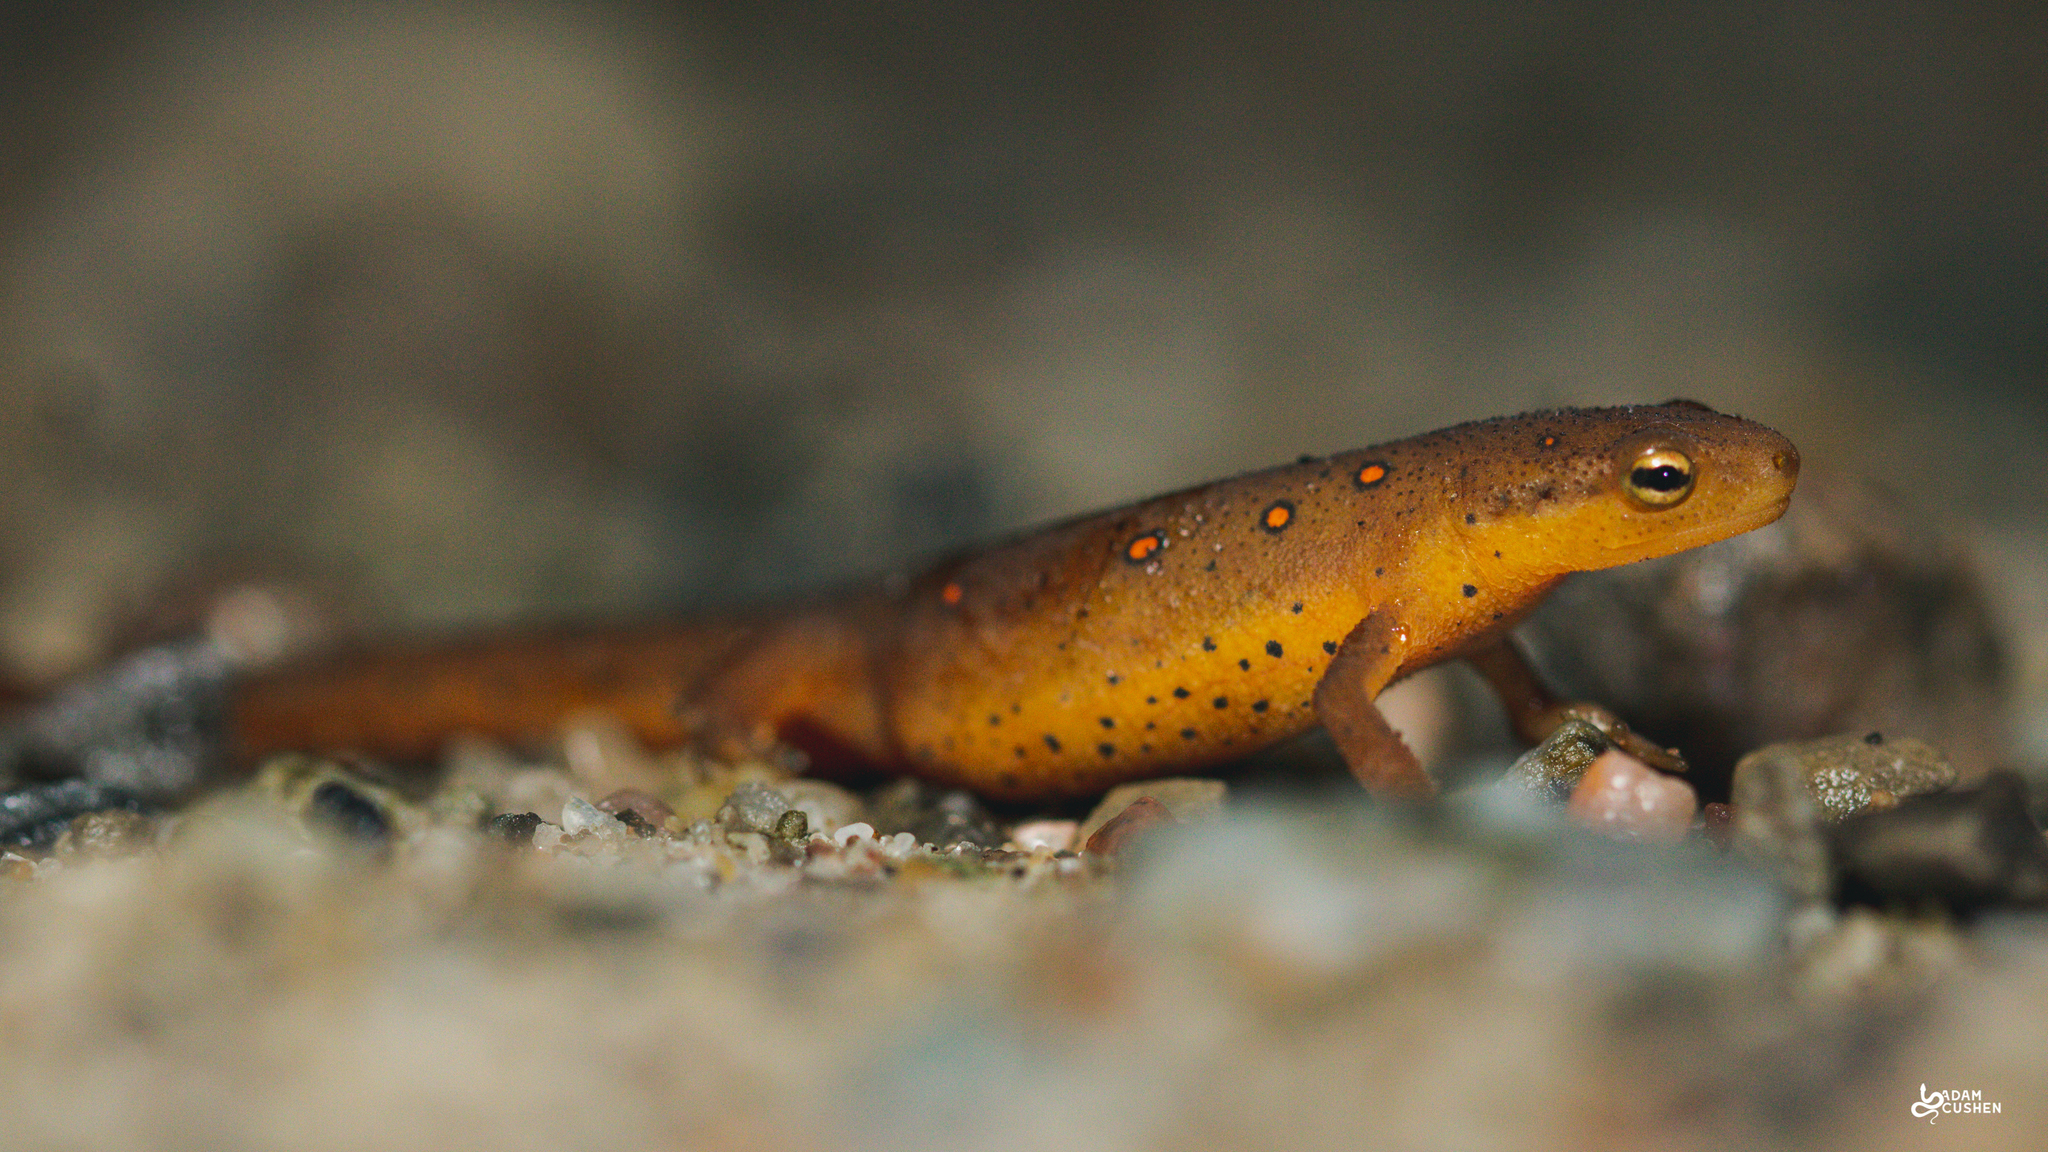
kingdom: Animalia
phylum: Chordata
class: Amphibia
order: Caudata
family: Salamandridae
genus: Notophthalmus
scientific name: Notophthalmus viridescens
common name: Eastern newt
